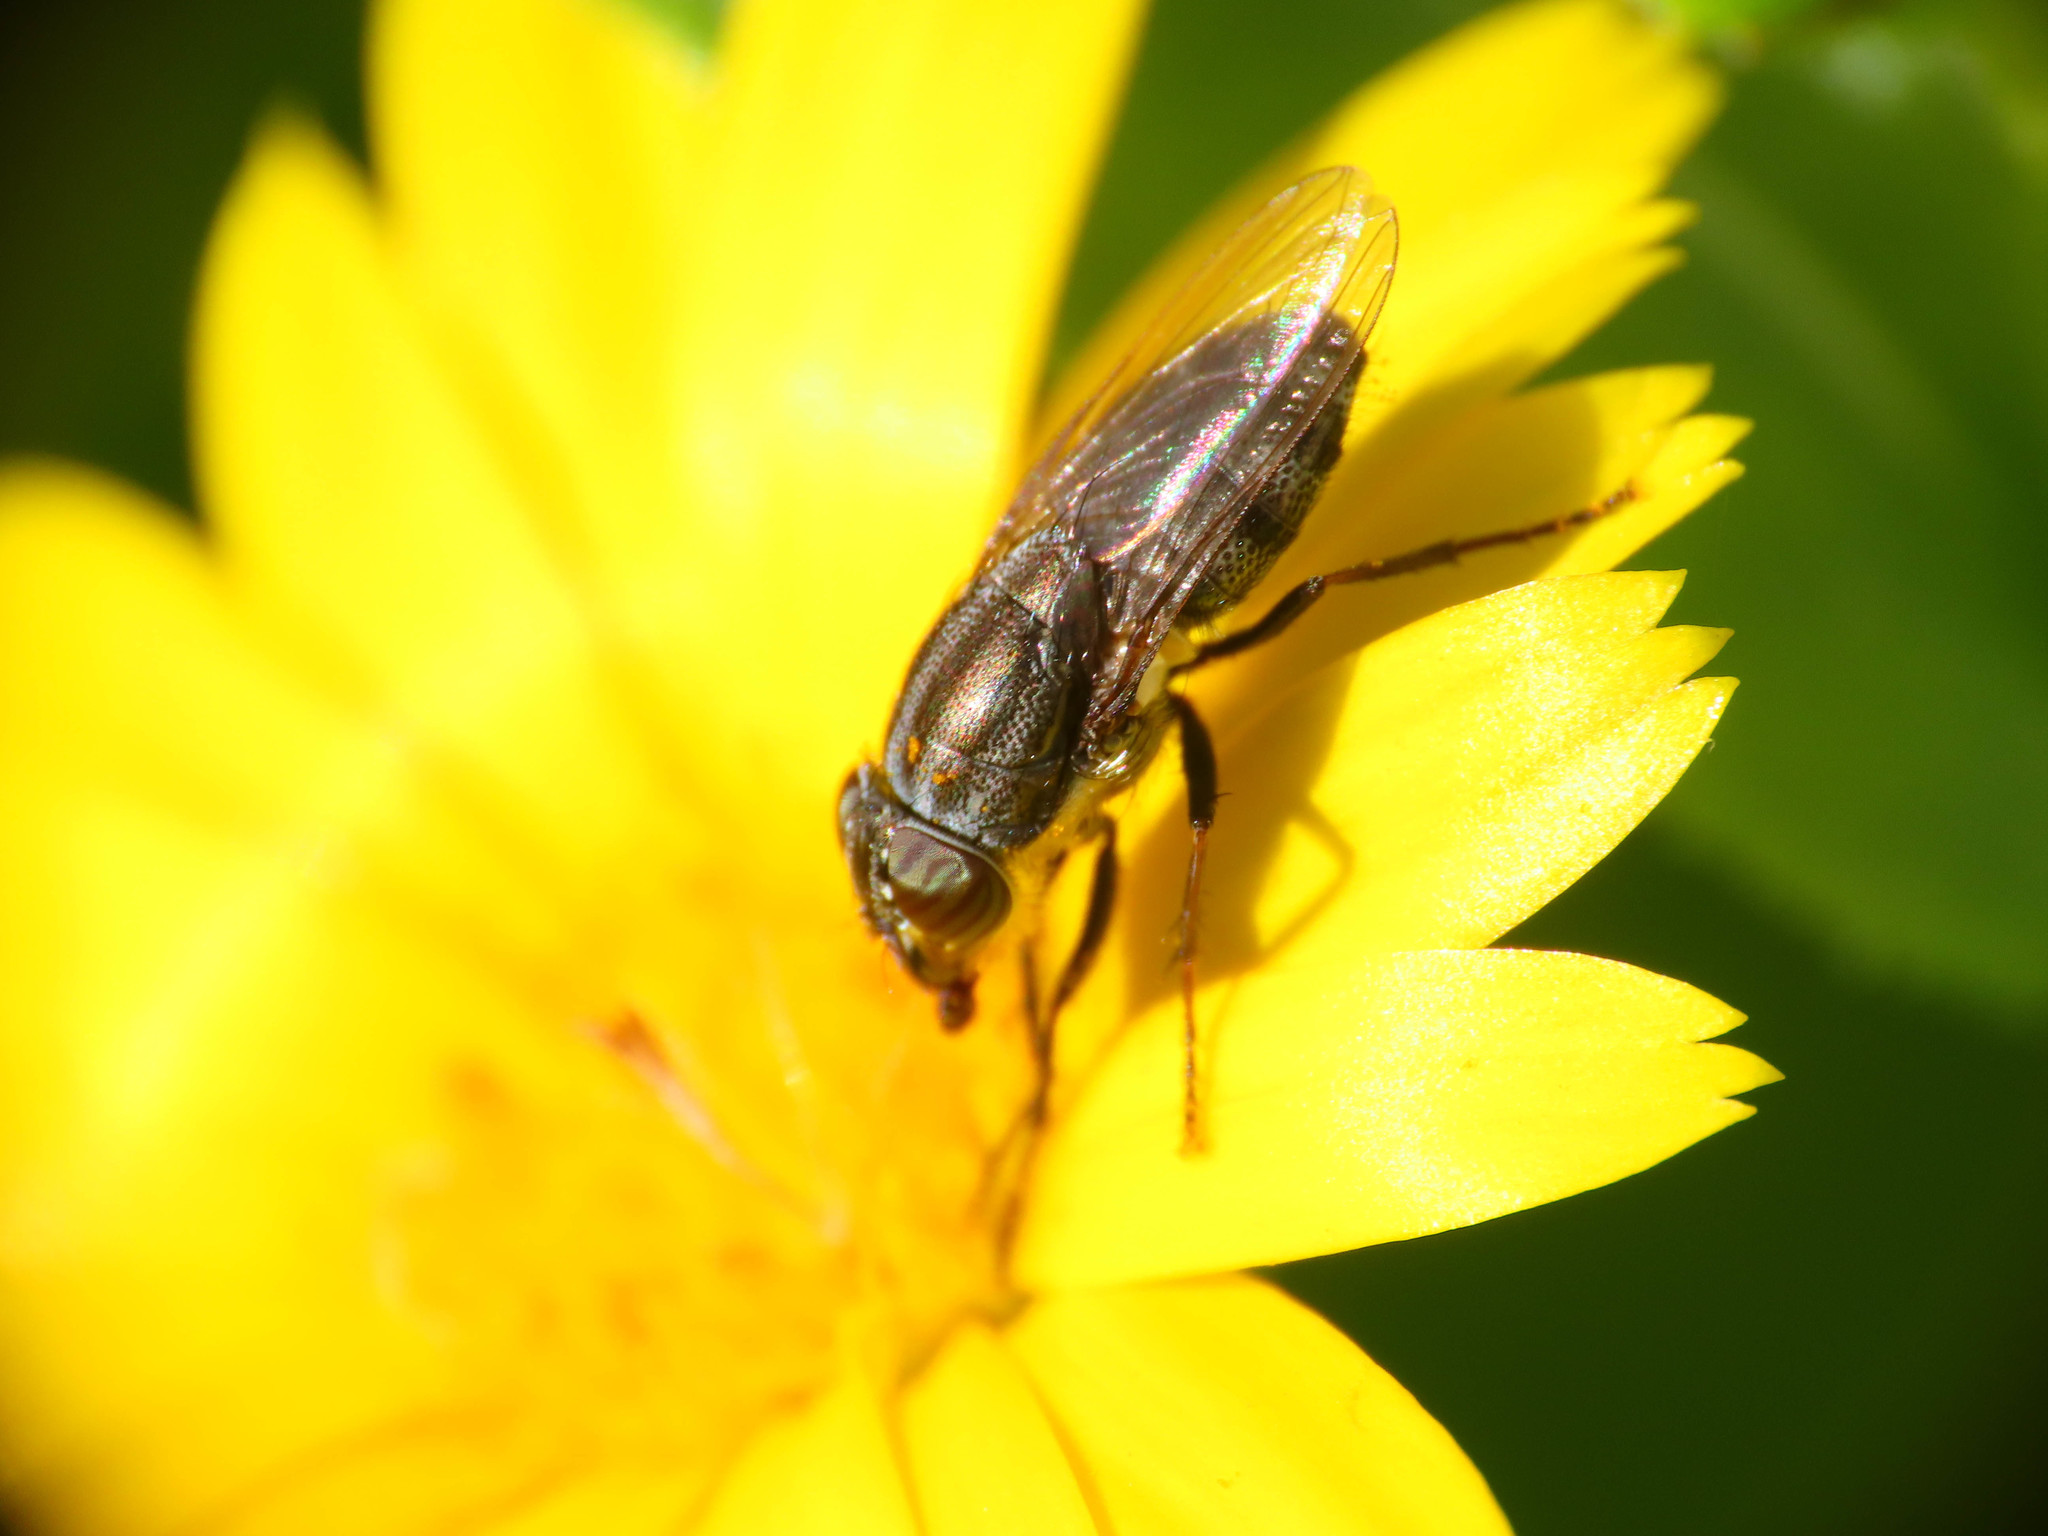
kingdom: Animalia
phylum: Arthropoda
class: Insecta
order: Diptera
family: Calliphoridae
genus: Stomorhina
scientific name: Stomorhina lunata
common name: Locust blowfly
